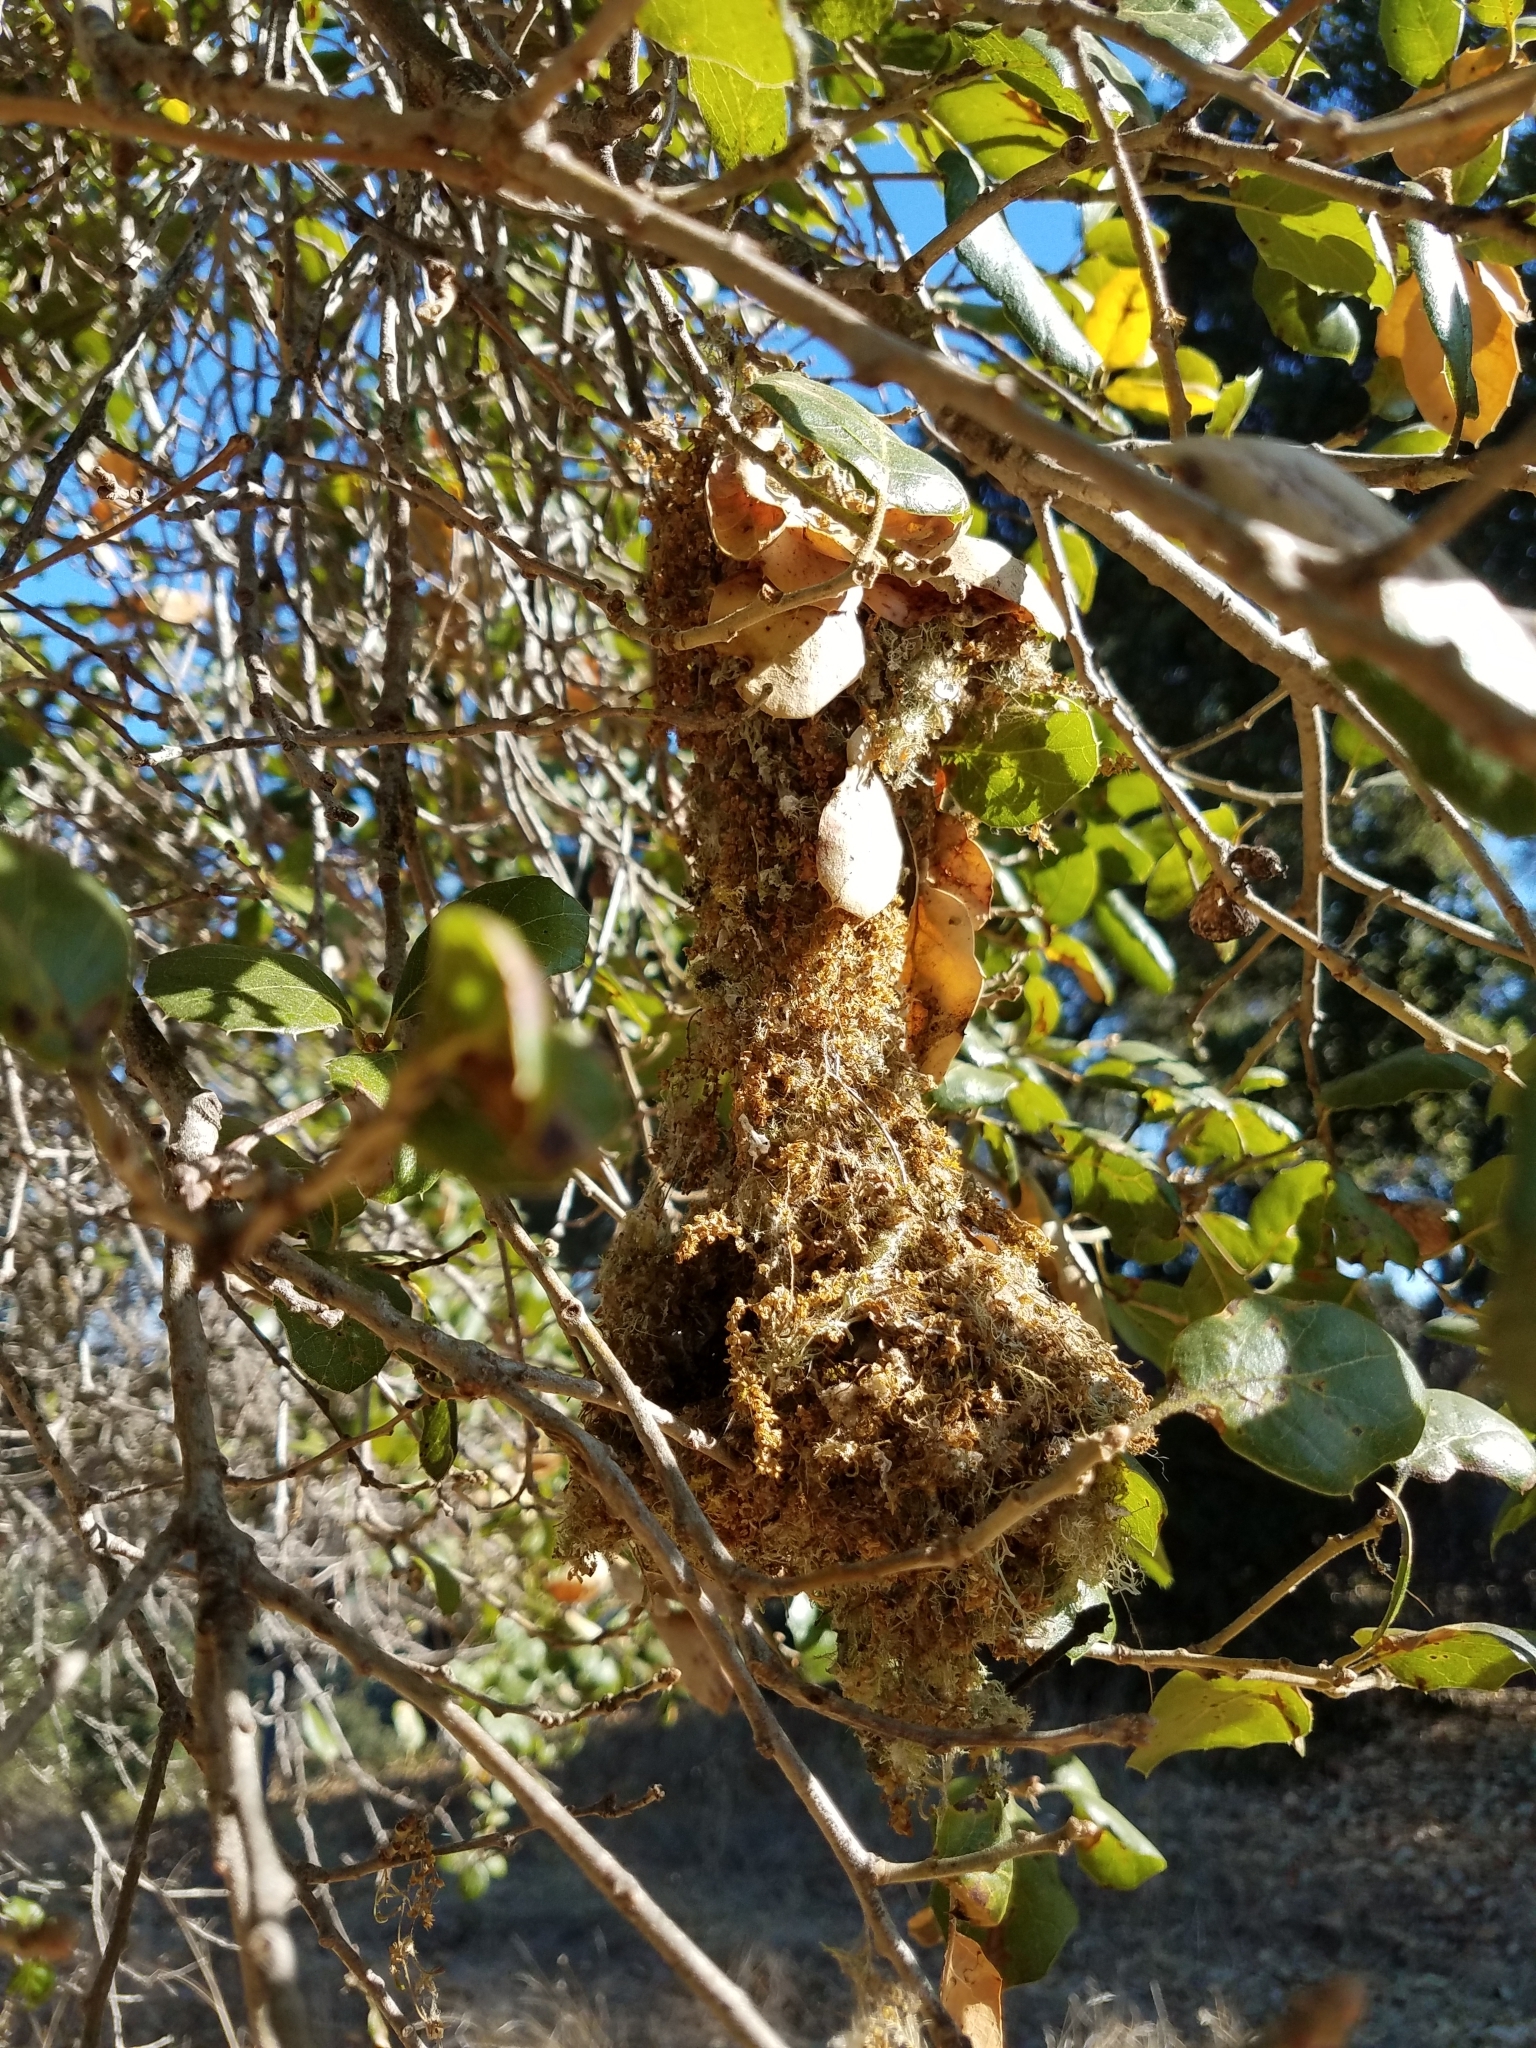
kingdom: Animalia
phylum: Chordata
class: Aves
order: Passeriformes
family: Aegithalidae
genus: Psaltriparus
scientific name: Psaltriparus minimus
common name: American bushtit
